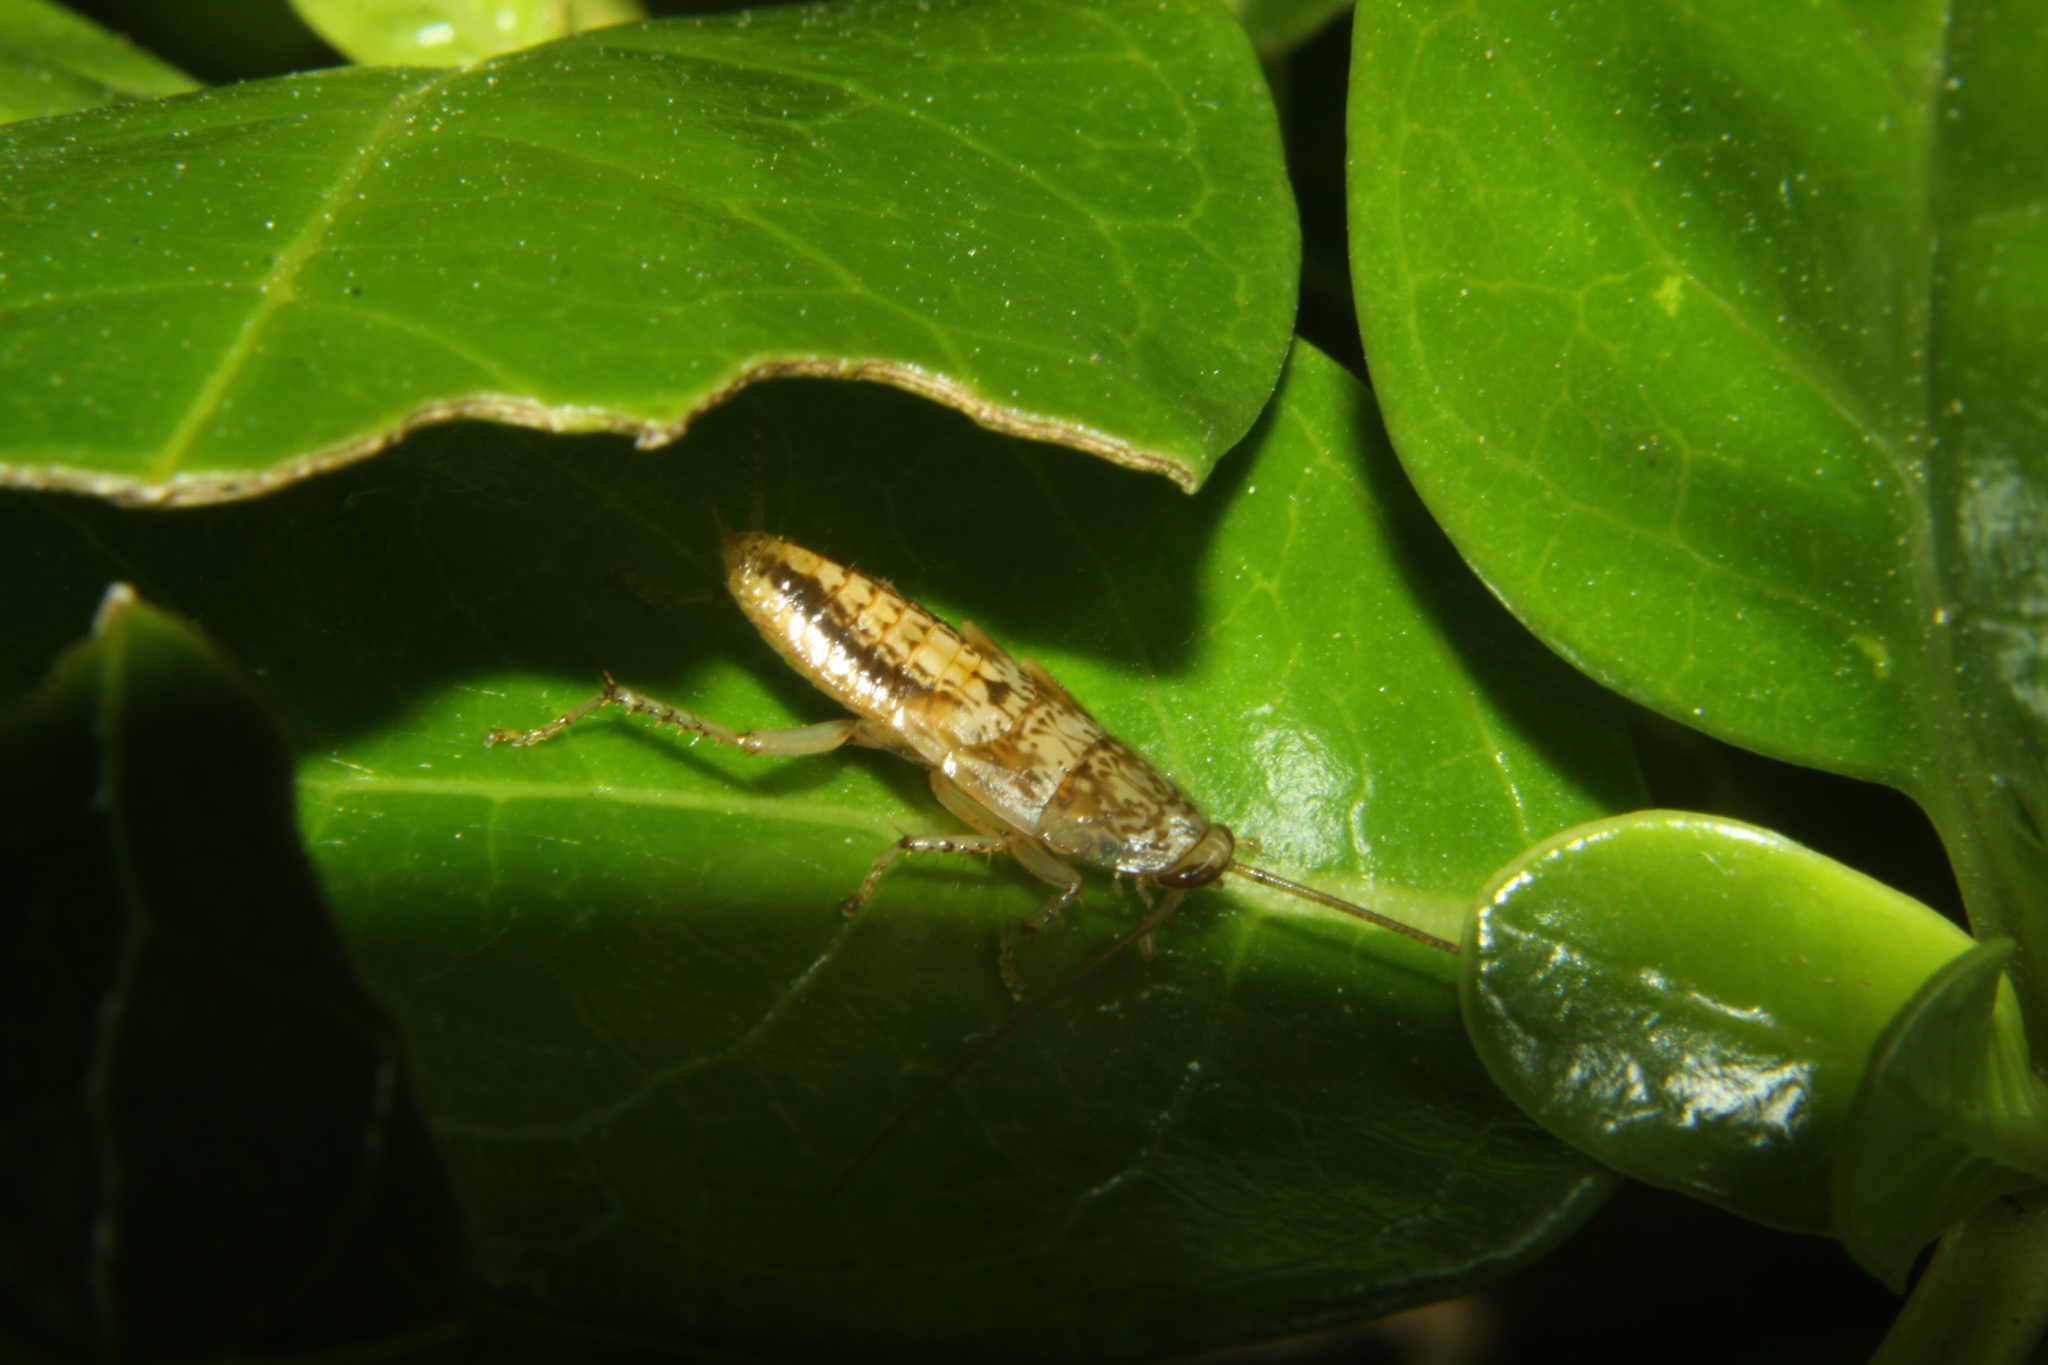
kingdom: Animalia
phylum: Arthropoda
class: Insecta
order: Blattodea
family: Ectobiidae
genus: Parellipsidion
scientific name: Parellipsidion latipenne
